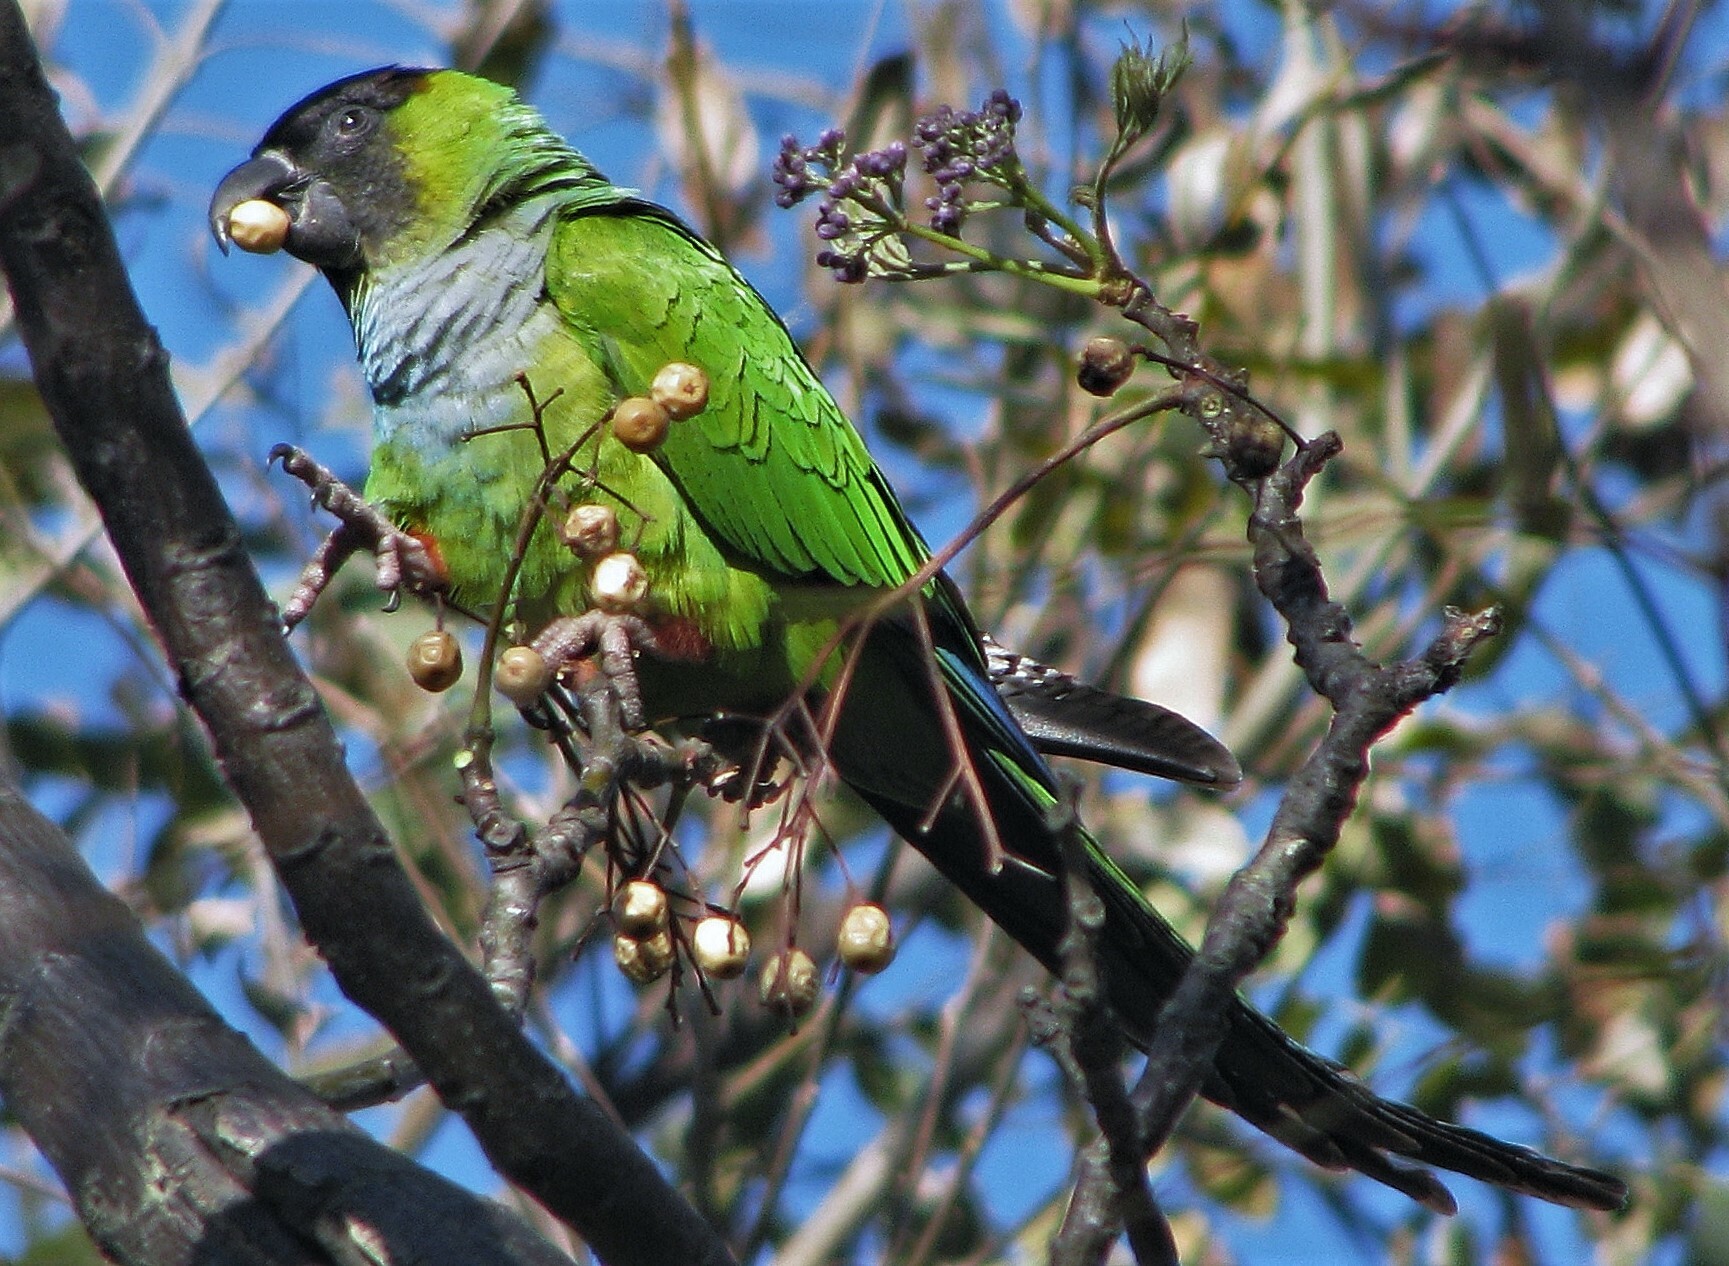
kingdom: Animalia
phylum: Chordata
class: Aves
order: Psittaciformes
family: Psittacidae
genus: Nandayus
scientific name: Nandayus nenday
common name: Nanday parakeet
